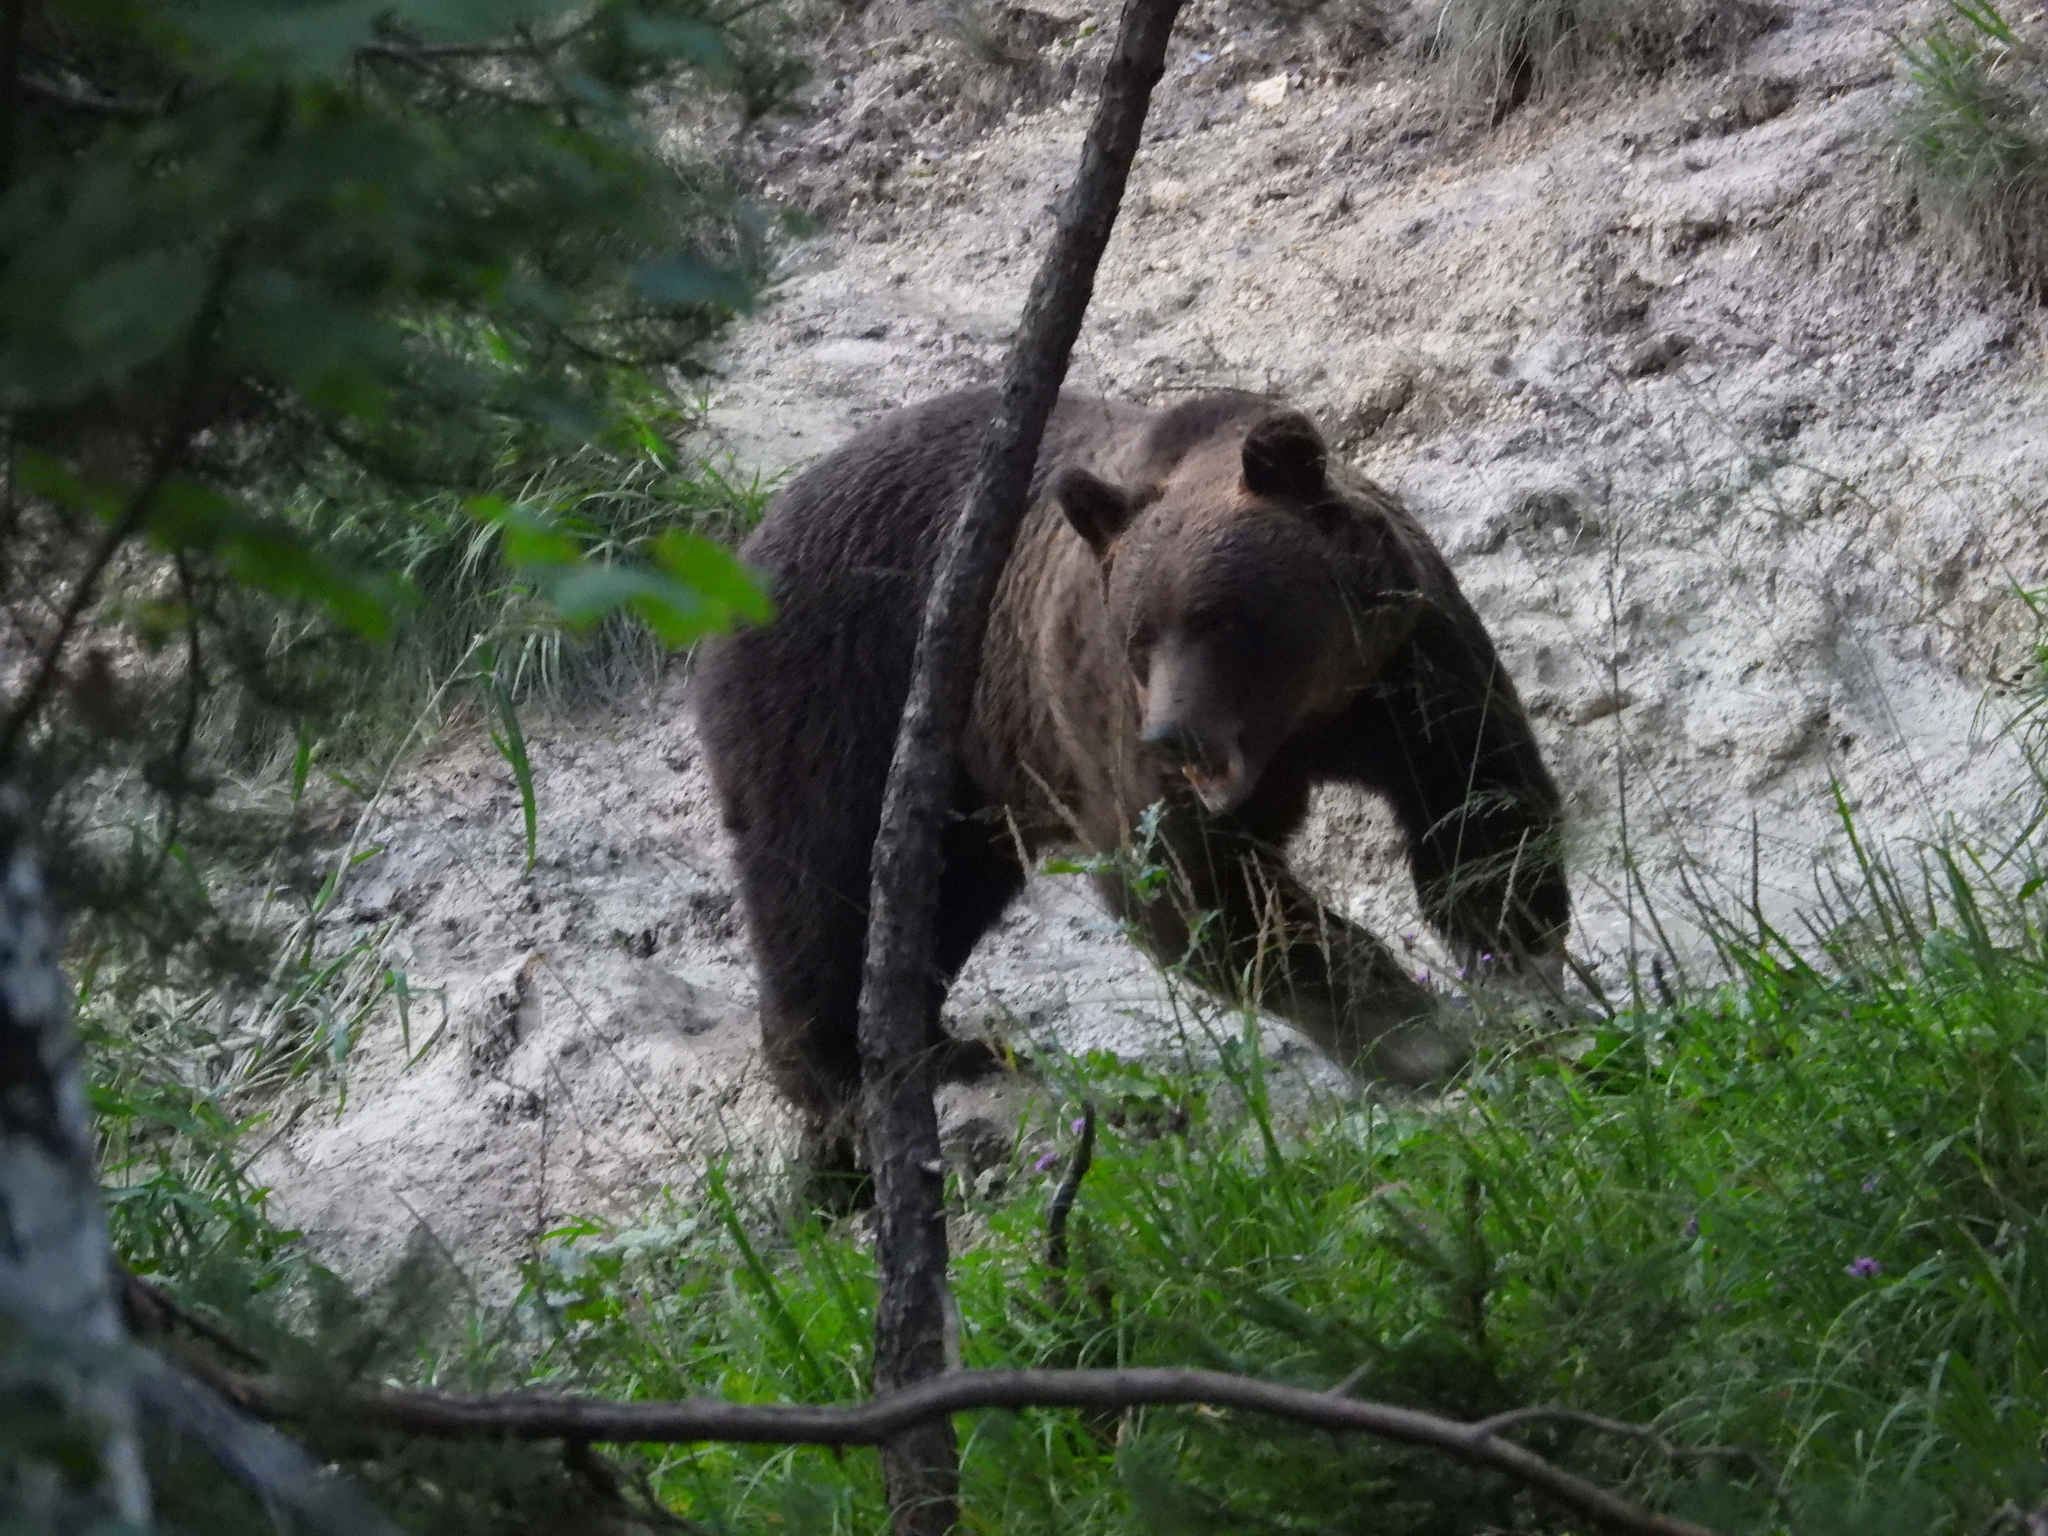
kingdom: Animalia
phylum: Chordata
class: Mammalia
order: Carnivora
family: Ursidae
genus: Ursus
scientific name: Ursus arctos
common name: Brown bear
